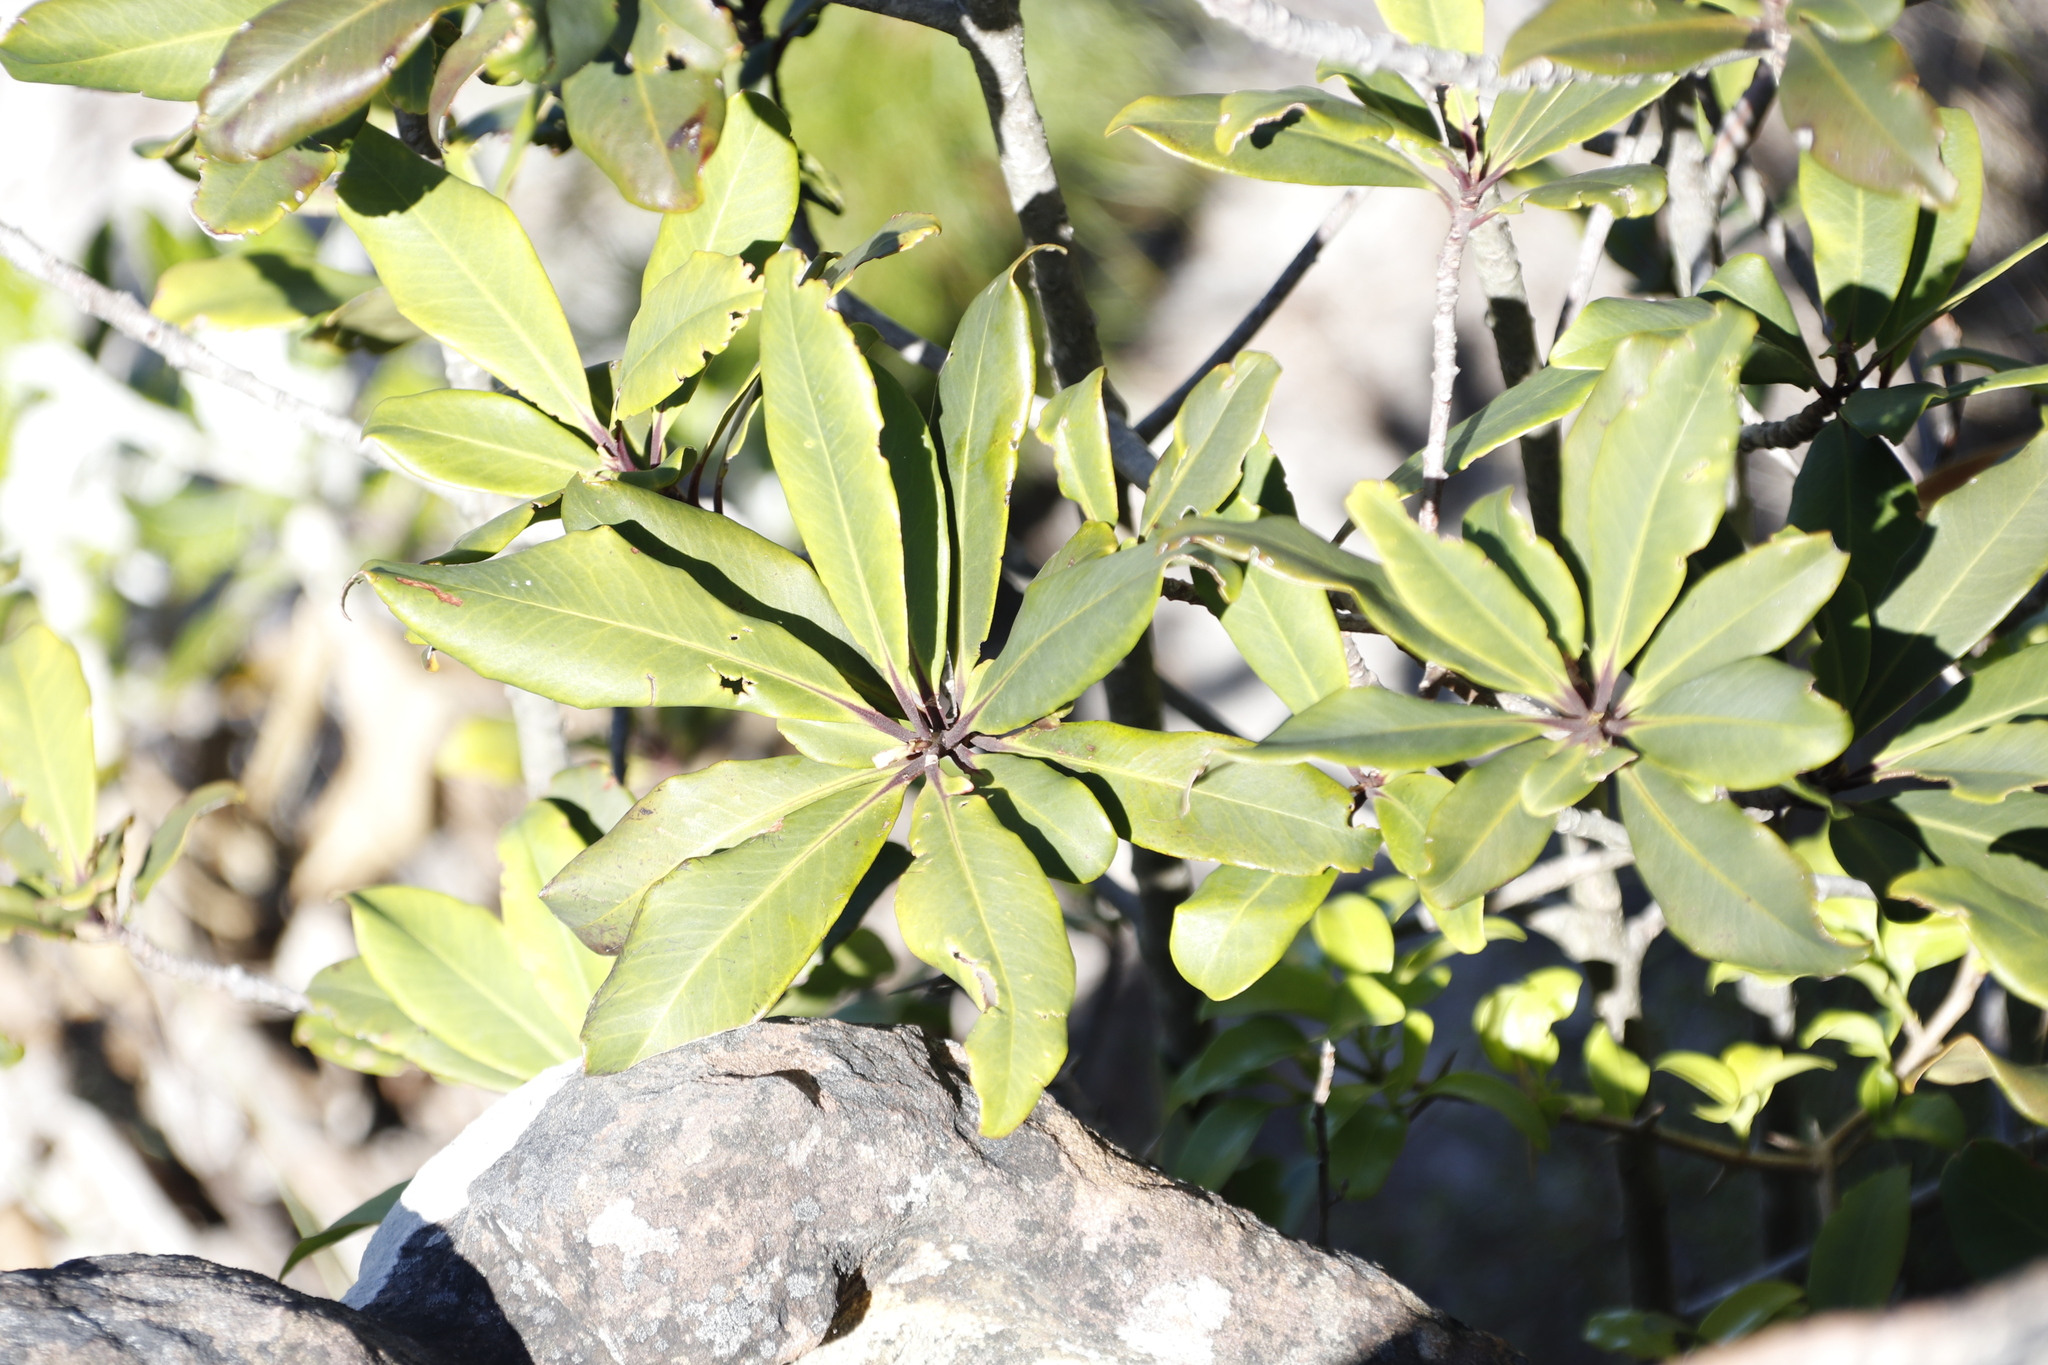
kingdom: Plantae
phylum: Tracheophyta
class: Magnoliopsida
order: Ericales
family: Primulaceae
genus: Myrsine
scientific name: Myrsine melanophloeos
